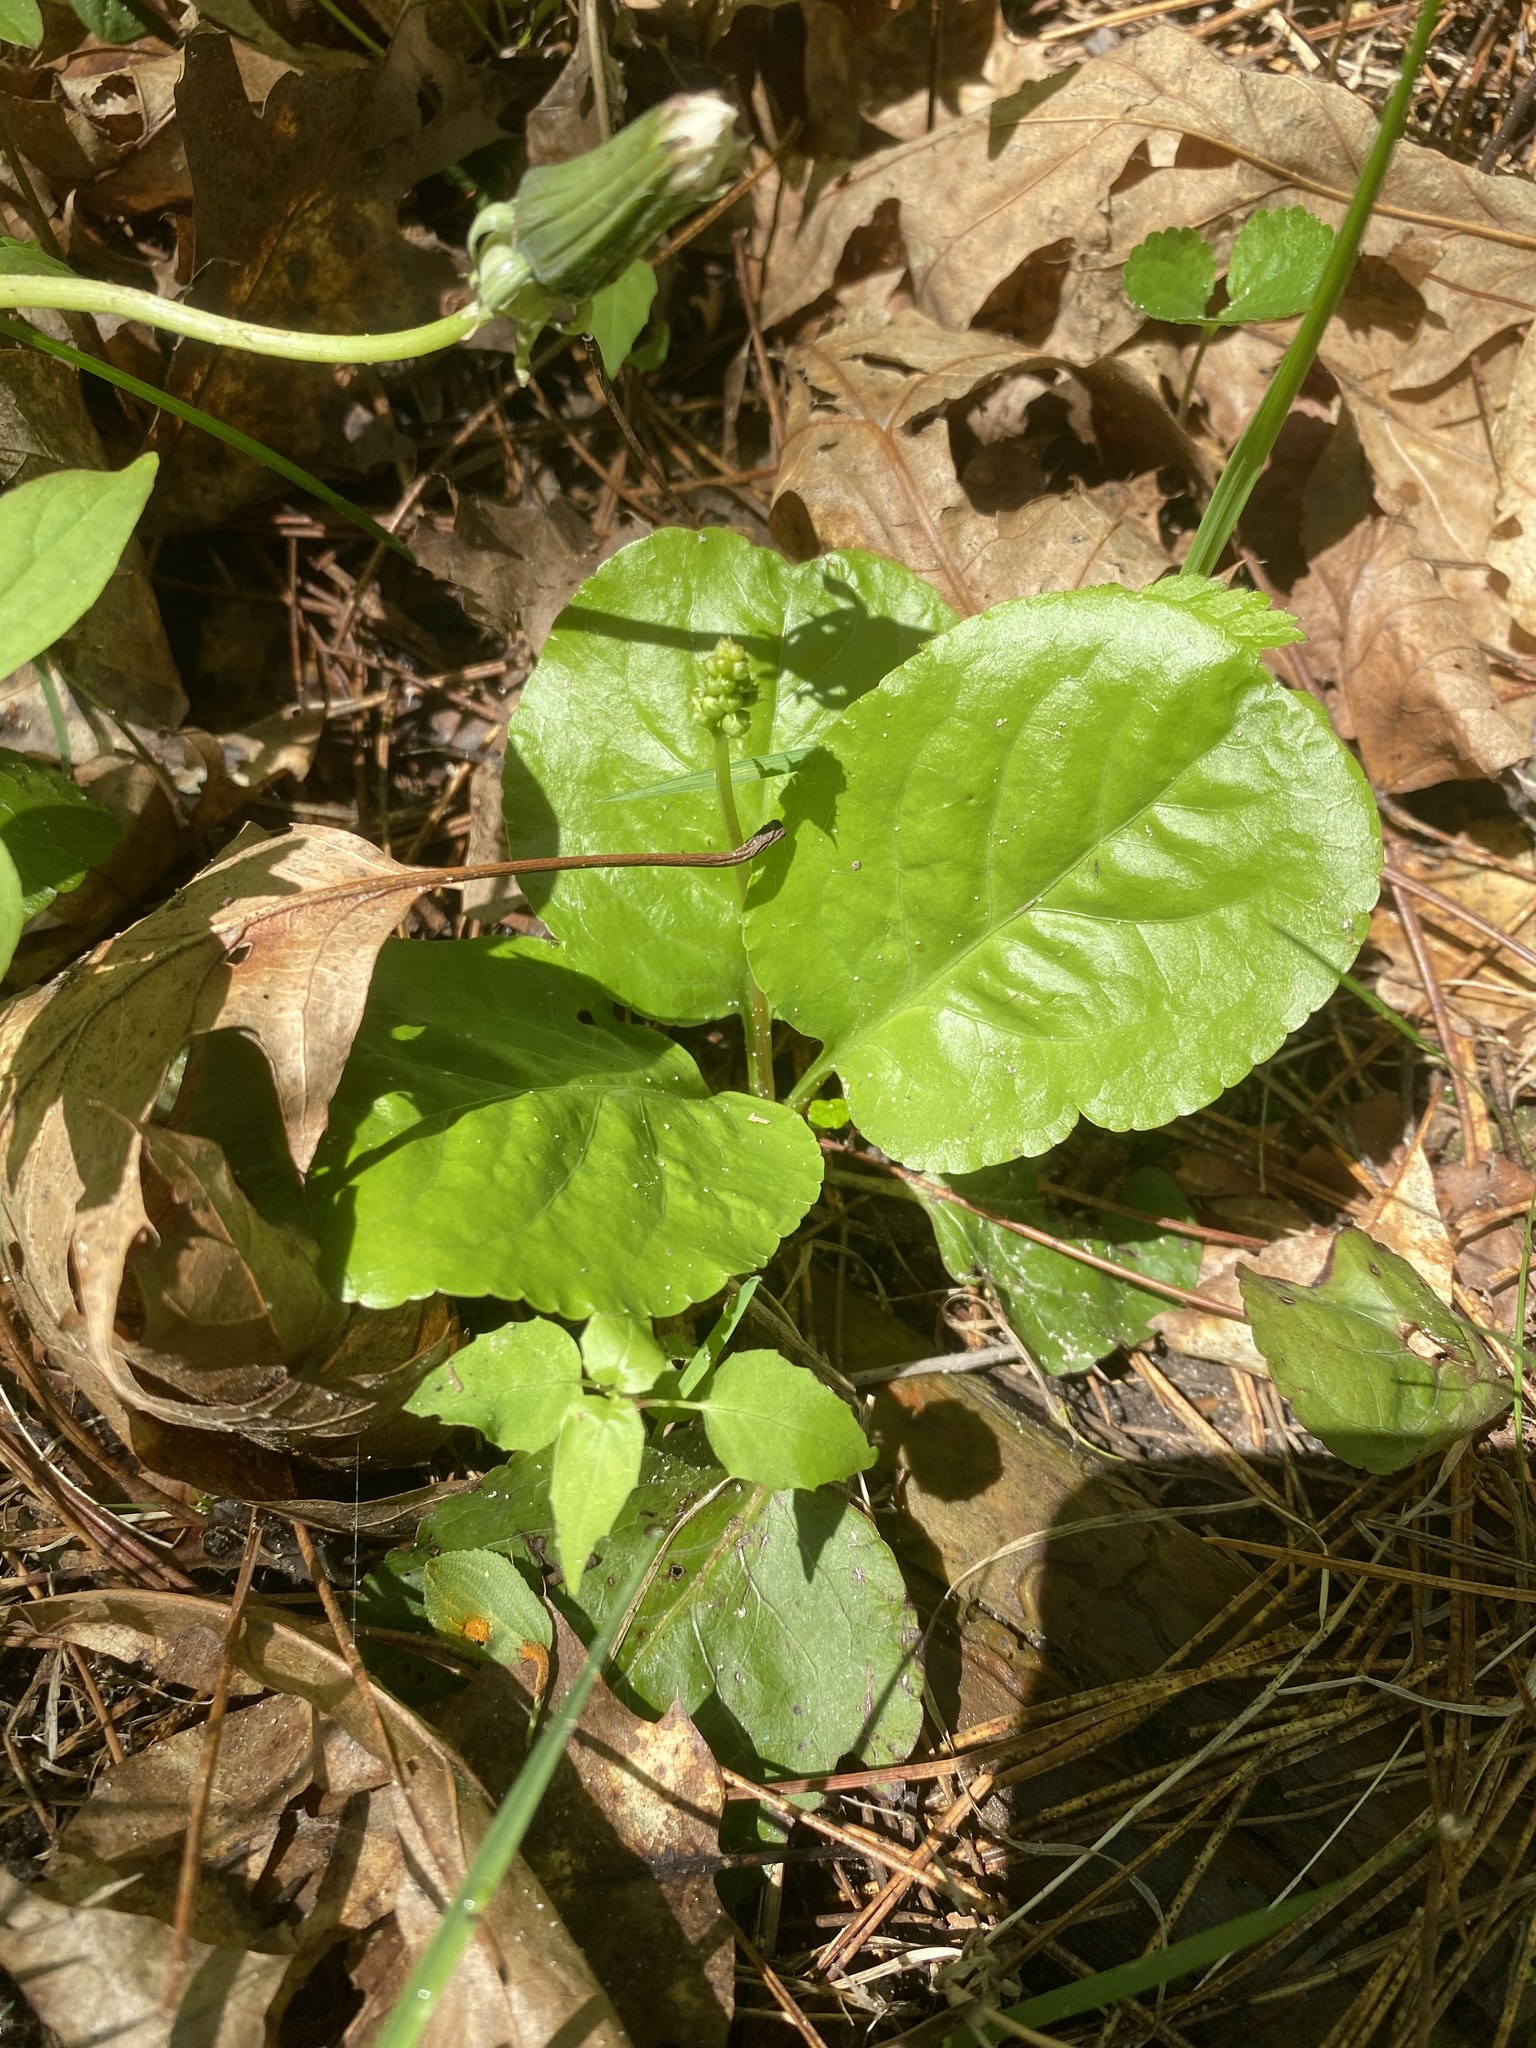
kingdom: Plantae
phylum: Tracheophyta
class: Magnoliopsida
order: Ericales
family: Ericaceae
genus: Pyrola
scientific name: Pyrola elliptica
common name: Shinleaf
